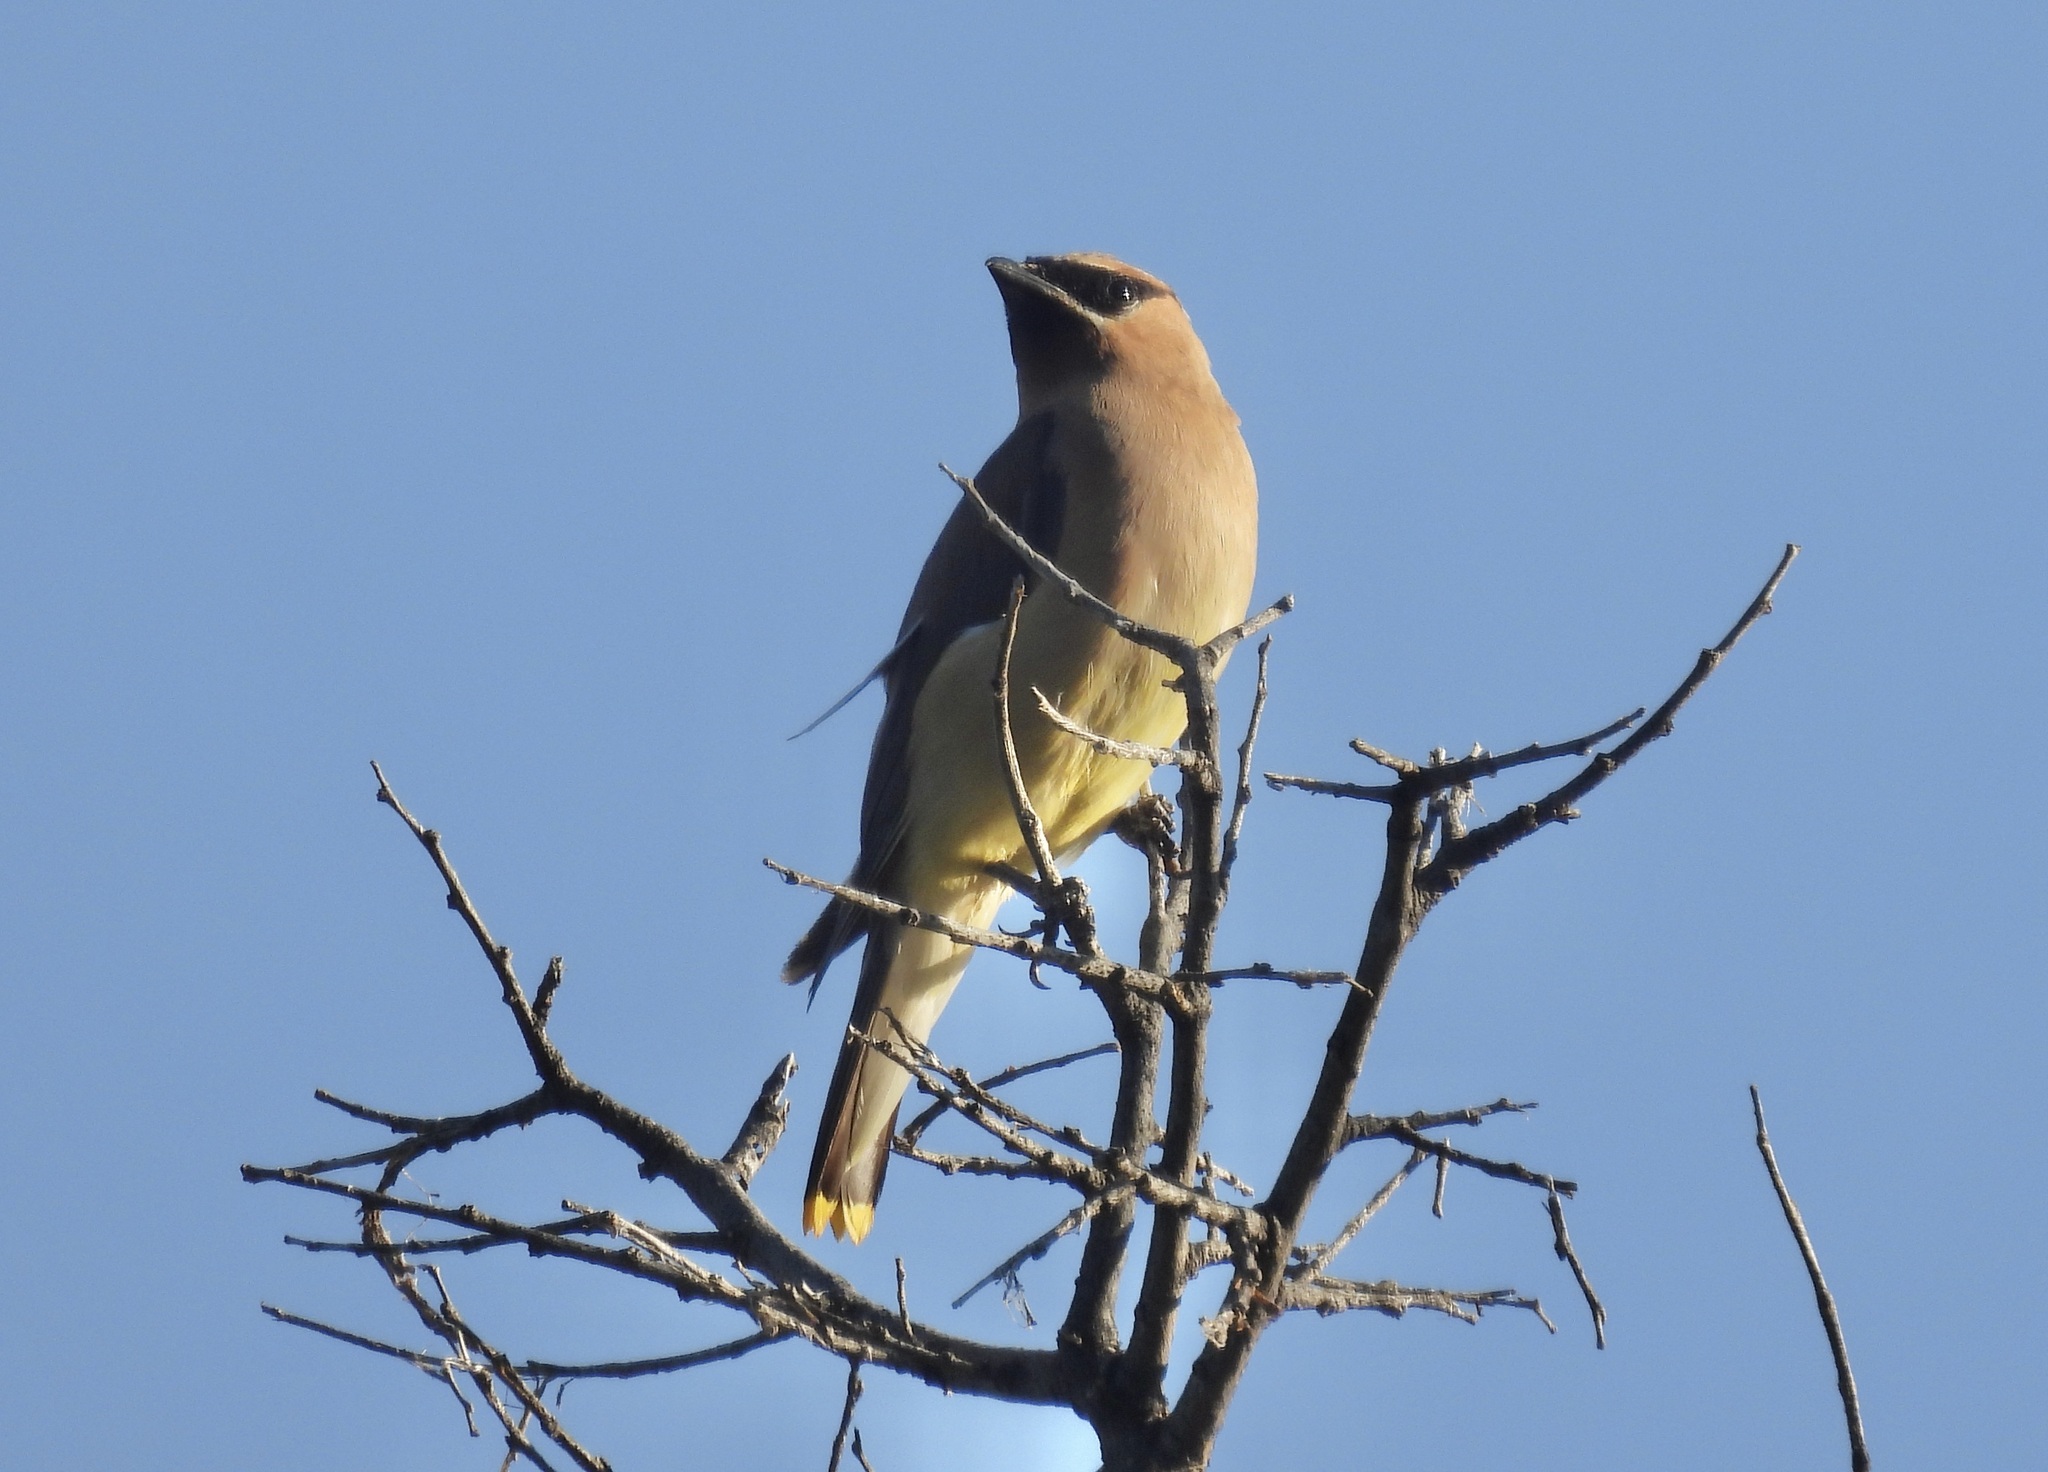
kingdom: Animalia
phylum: Chordata
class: Aves
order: Passeriformes
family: Bombycillidae
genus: Bombycilla
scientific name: Bombycilla cedrorum
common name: Cedar waxwing
